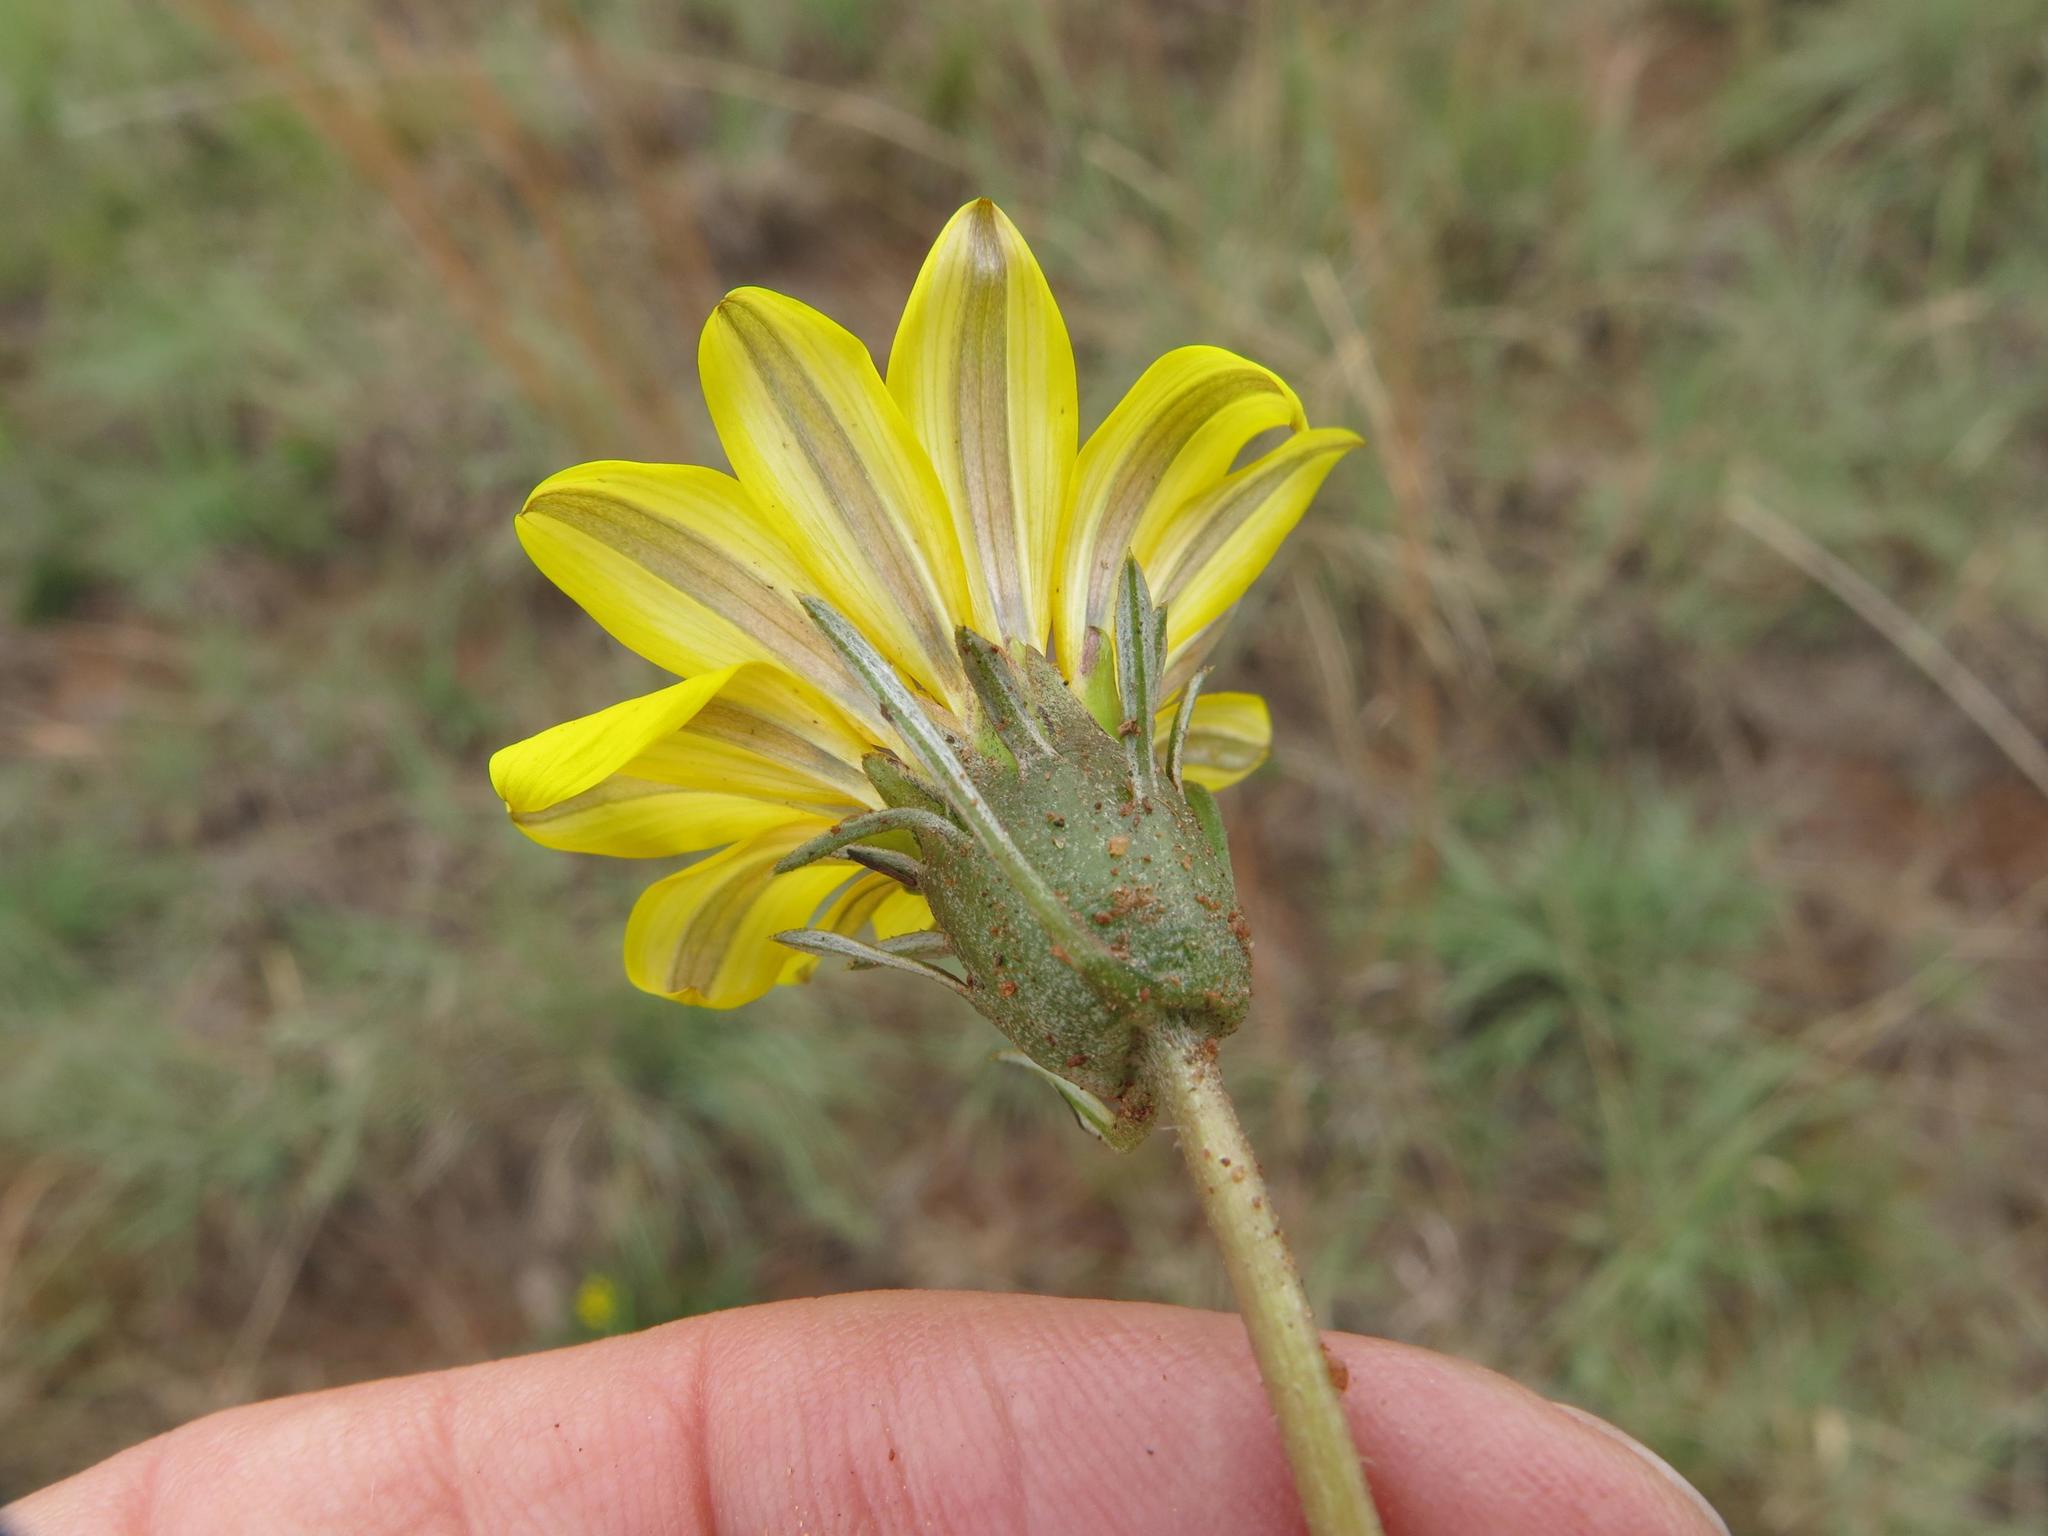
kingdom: Plantae
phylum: Tracheophyta
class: Magnoliopsida
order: Asterales
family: Asteraceae
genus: Gazania
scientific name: Gazania krebsiana
